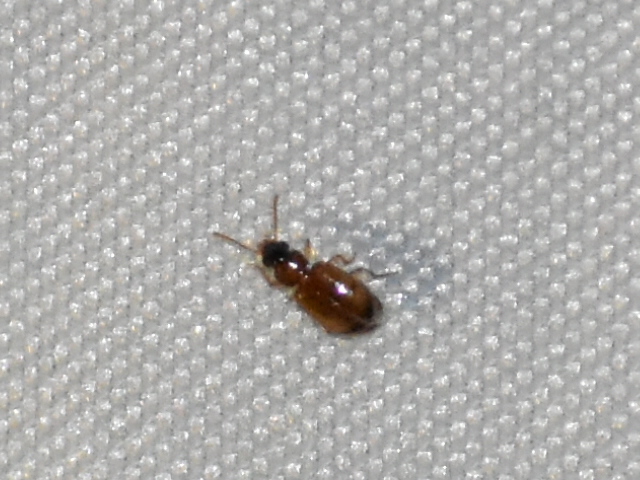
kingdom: Animalia
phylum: Arthropoda
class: Insecta
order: Coleoptera
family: Carabidae
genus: Perigona
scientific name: Perigona nigriceps
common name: Tawny harp ground beetle
